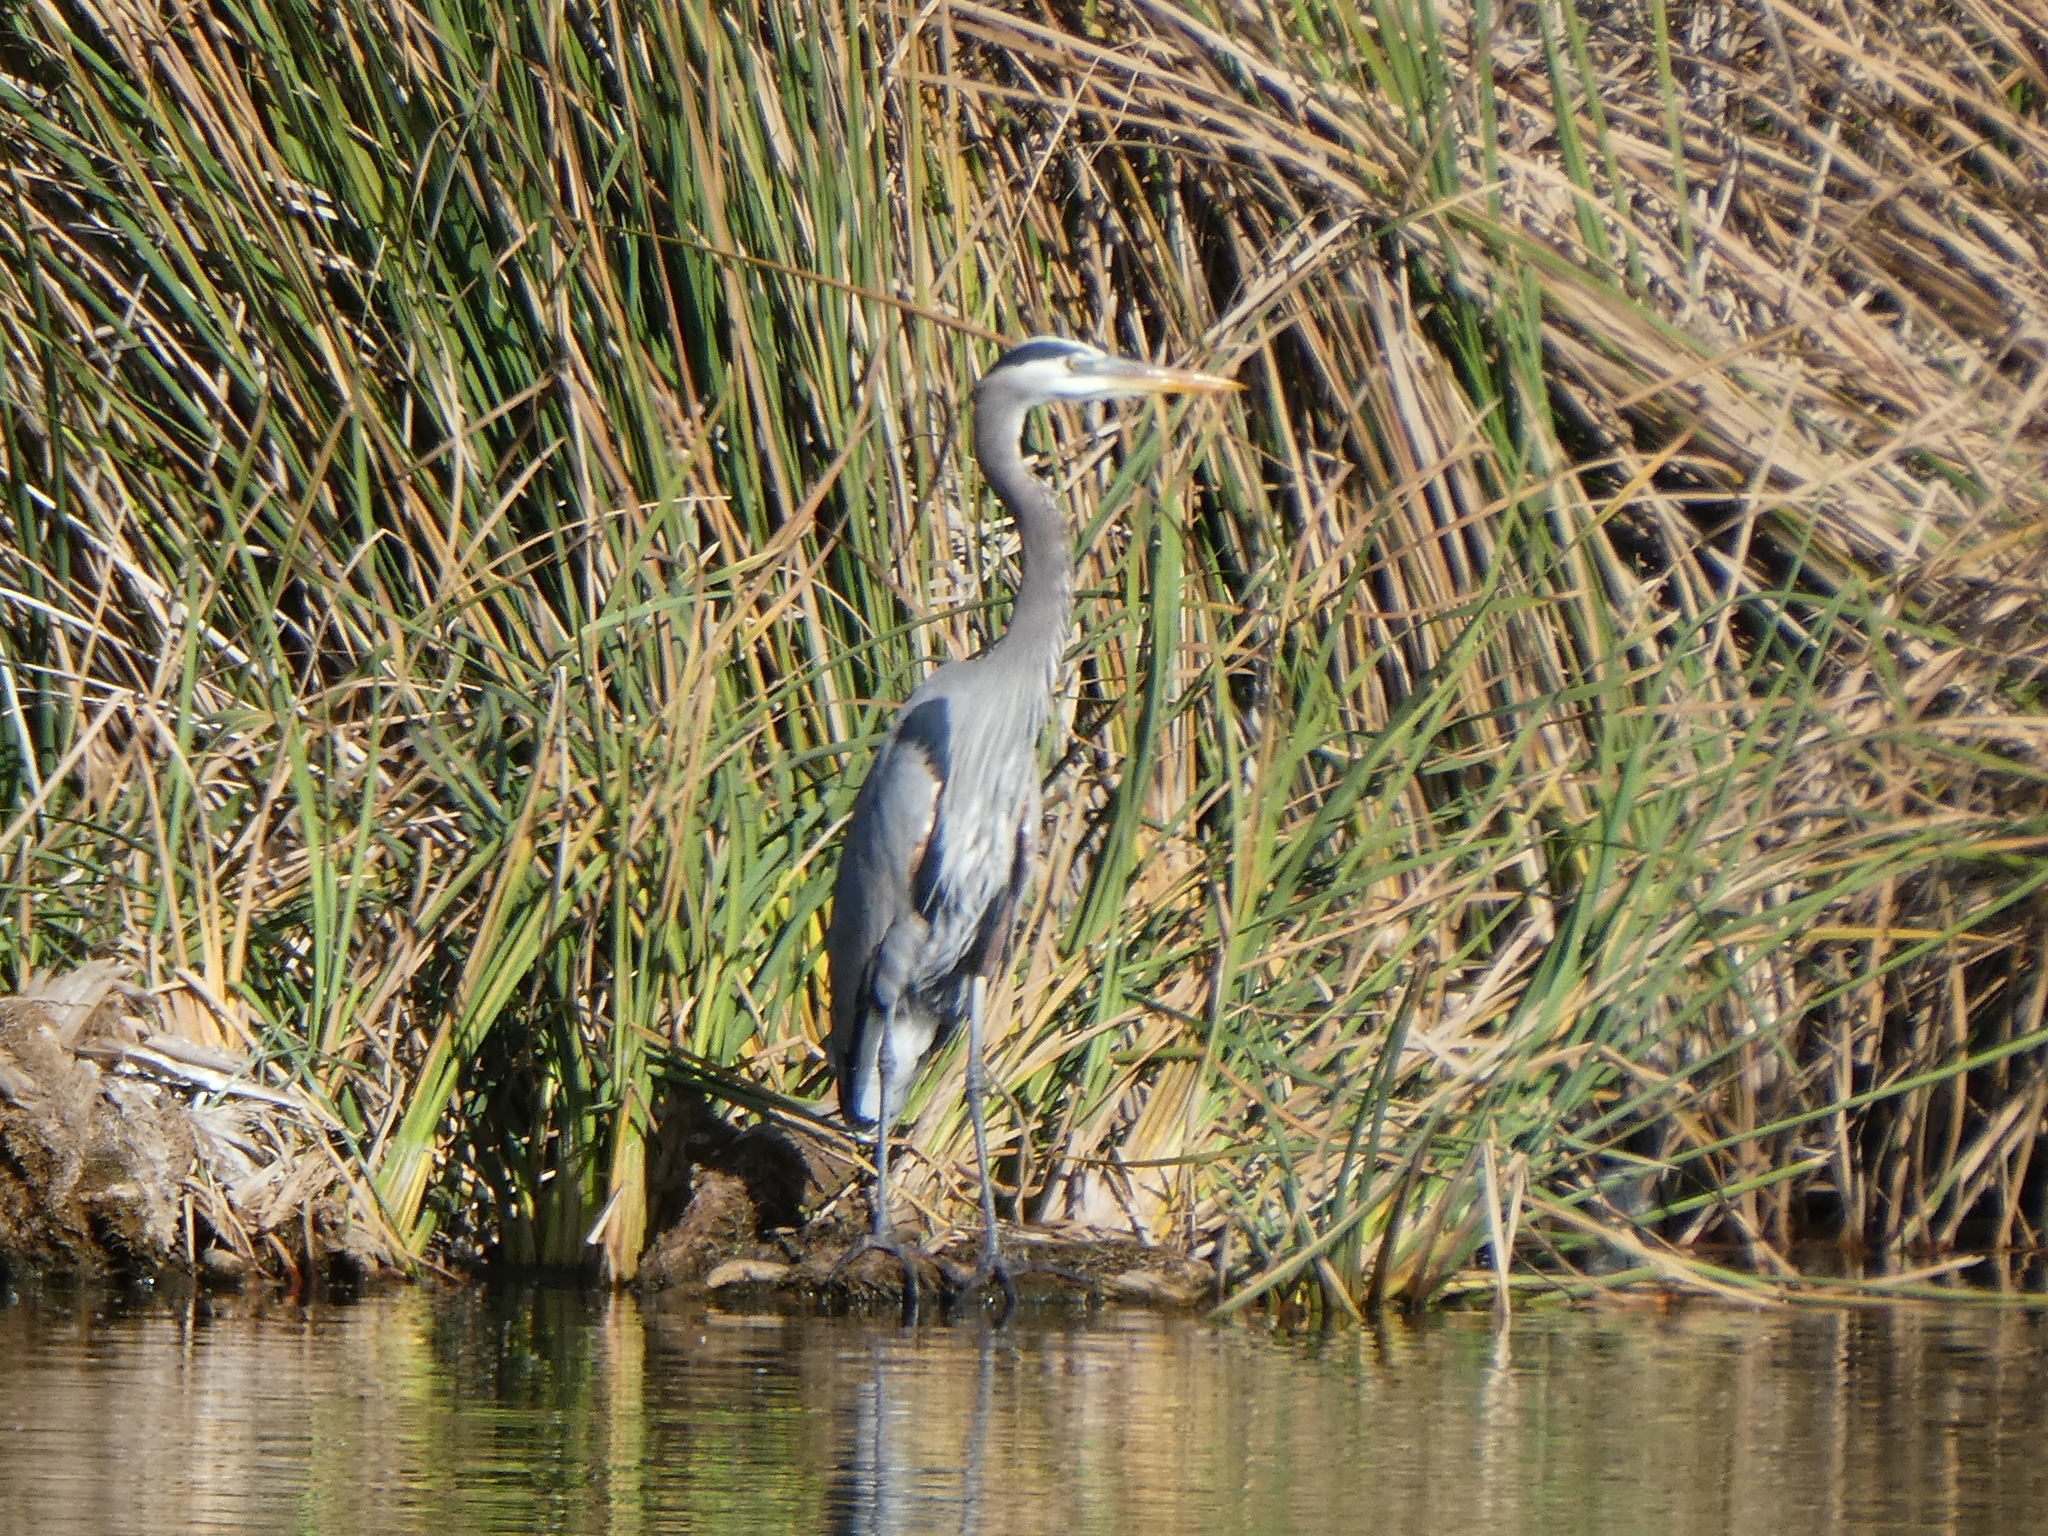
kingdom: Animalia
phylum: Chordata
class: Aves
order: Pelecaniformes
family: Ardeidae
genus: Ardea
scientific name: Ardea herodias
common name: Great blue heron
